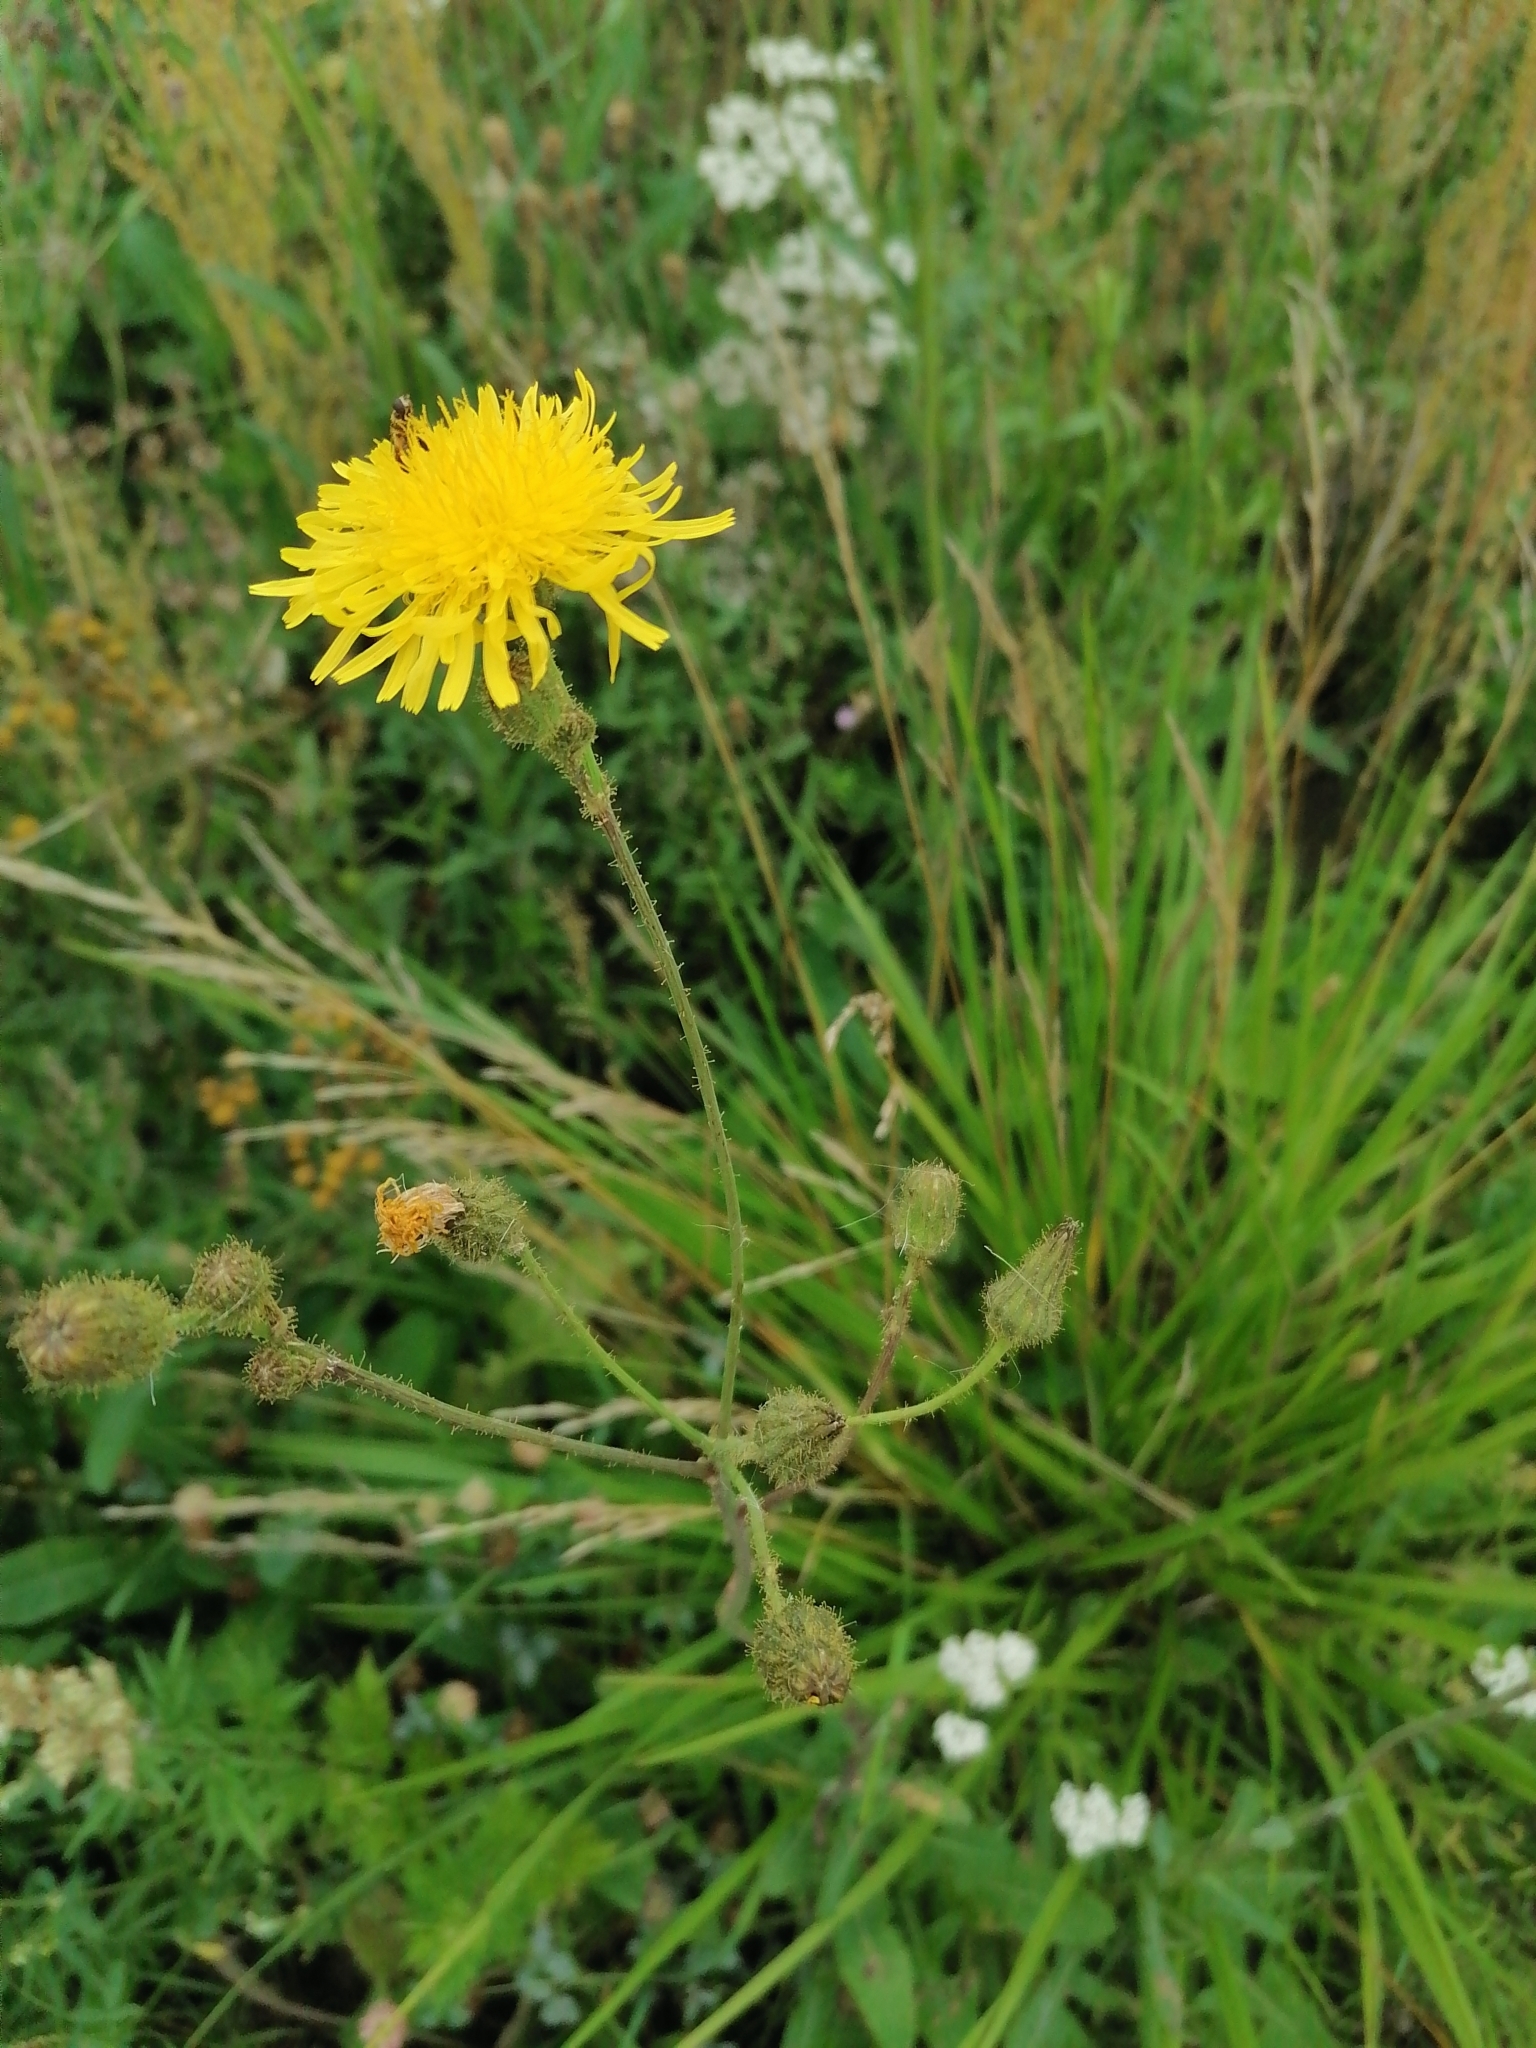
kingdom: Plantae
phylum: Tracheophyta
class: Magnoliopsida
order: Asterales
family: Asteraceae
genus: Sonchus
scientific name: Sonchus arvensis
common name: Perennial sow-thistle
